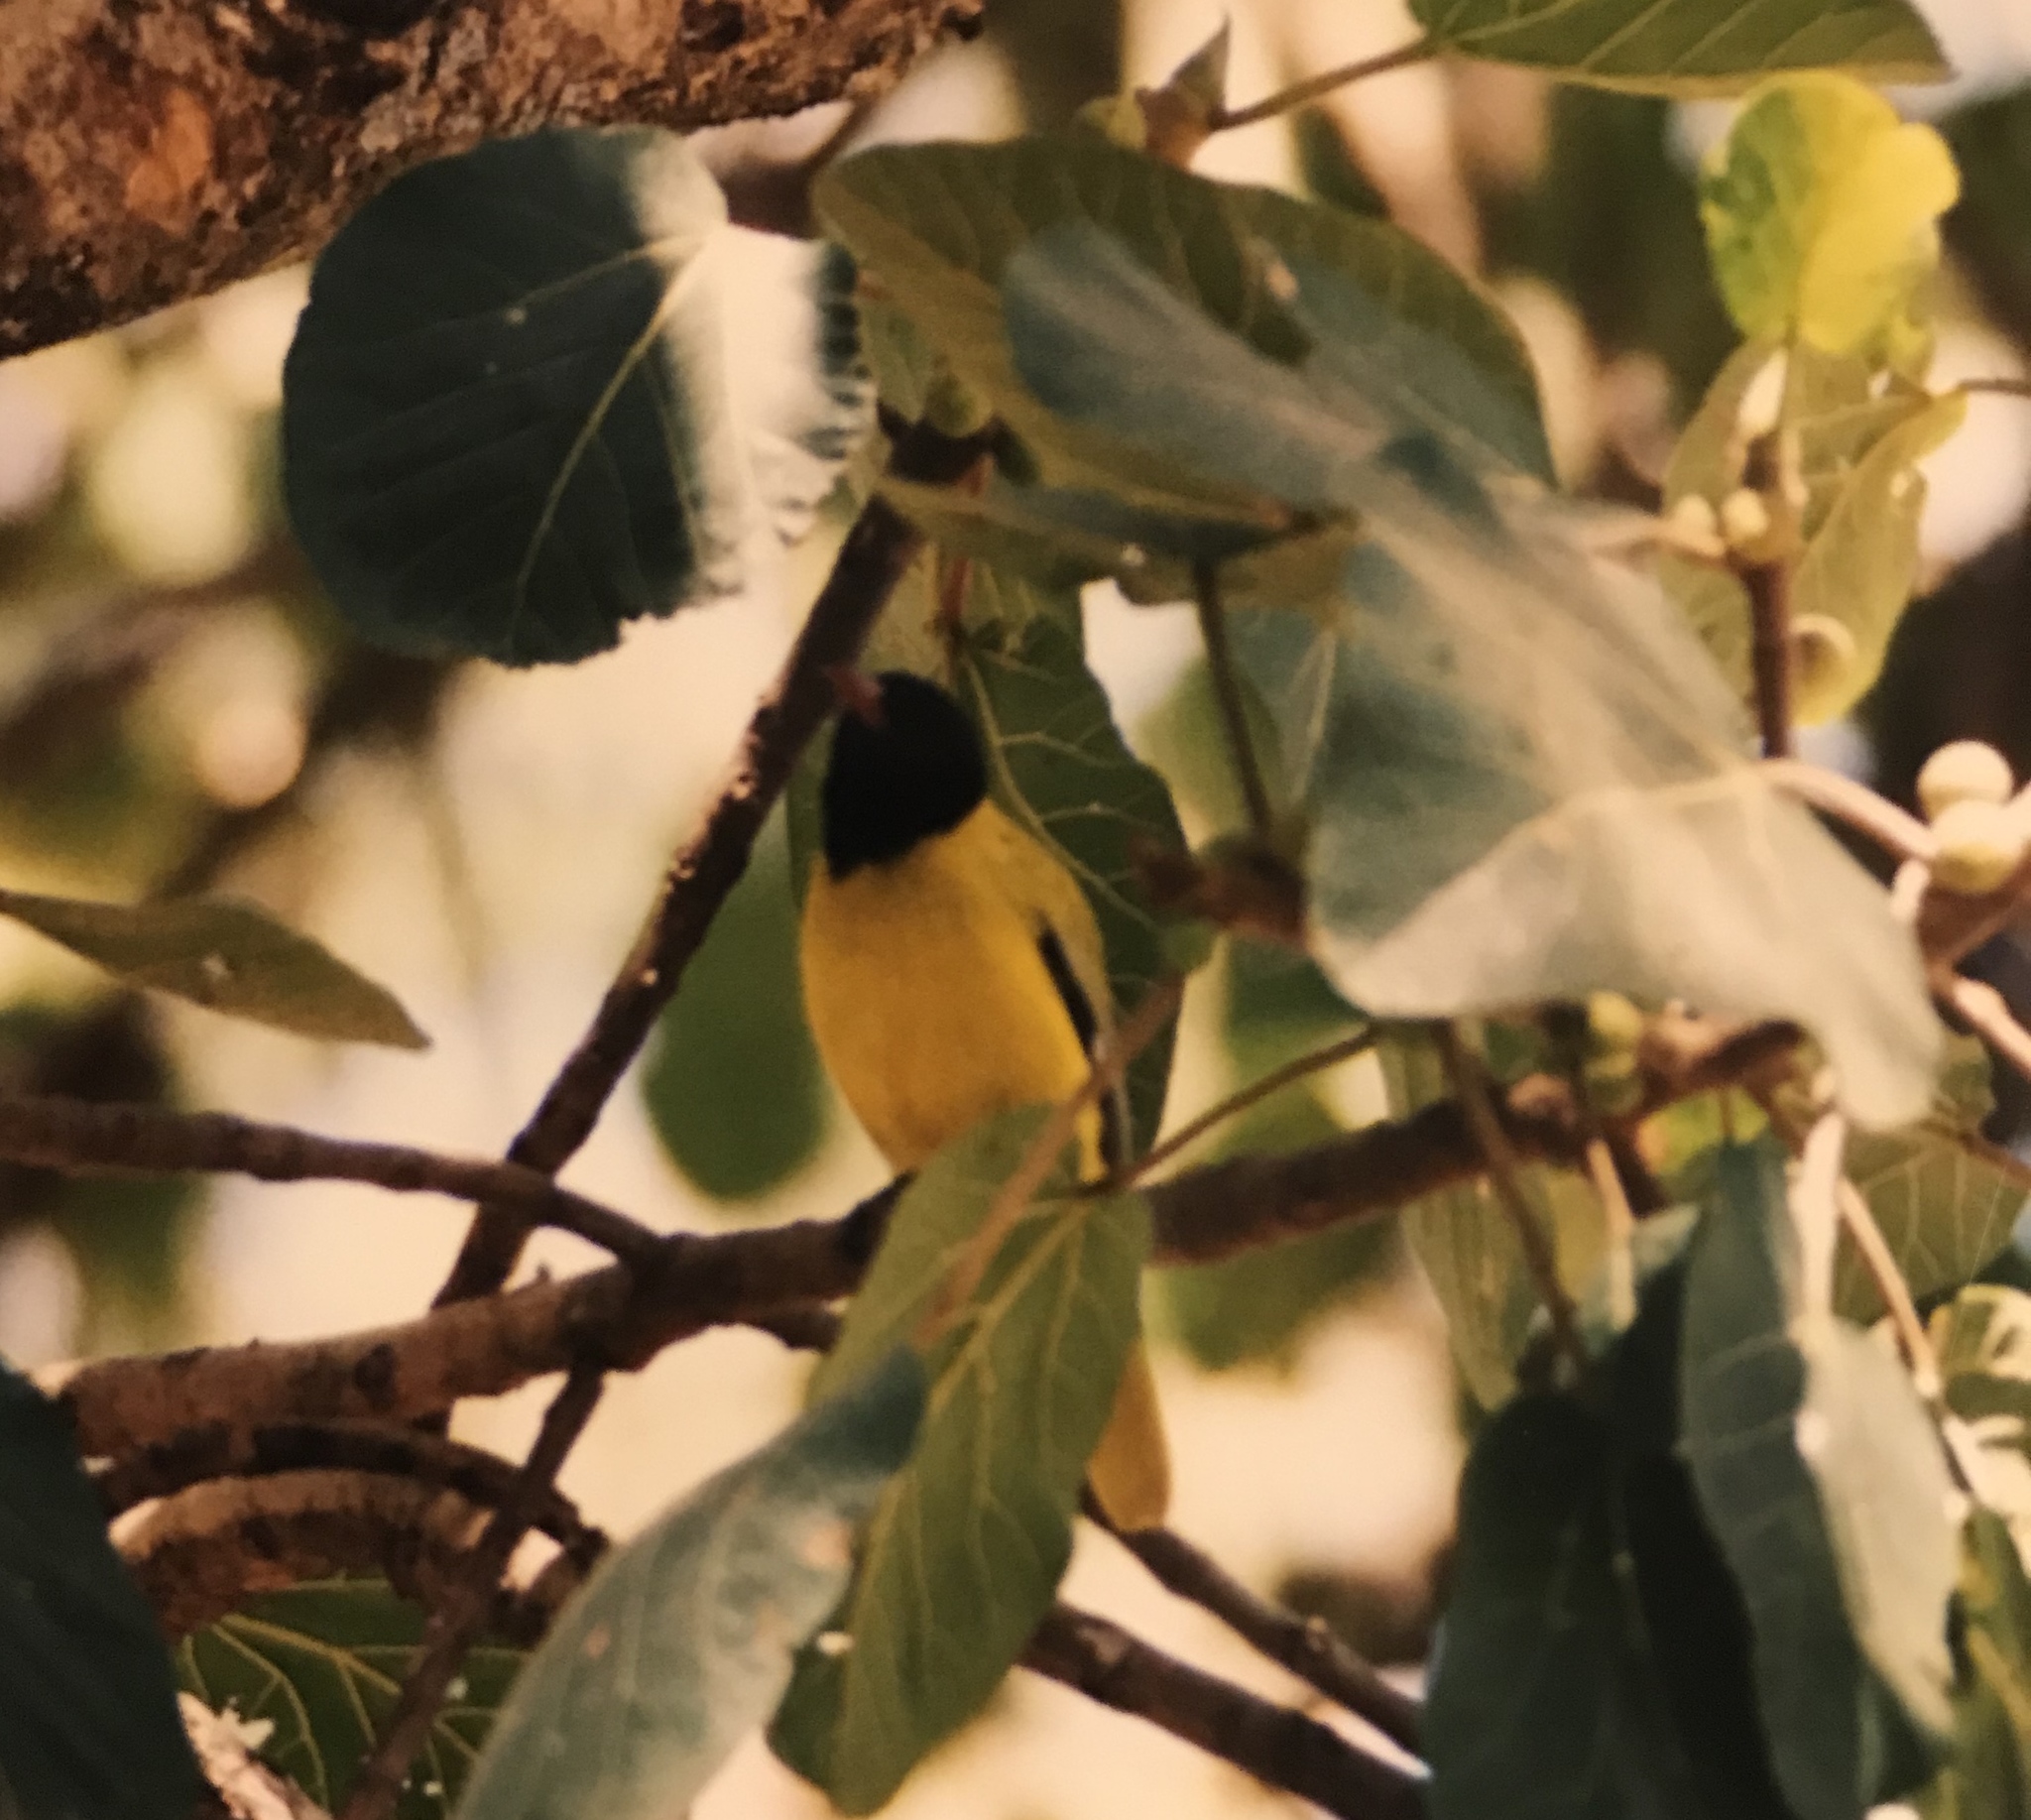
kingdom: Animalia
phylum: Chordata
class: Aves
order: Passeriformes
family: Oriolidae
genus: Oriolus
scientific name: Oriolus monacha
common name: Ethiopian oriole
